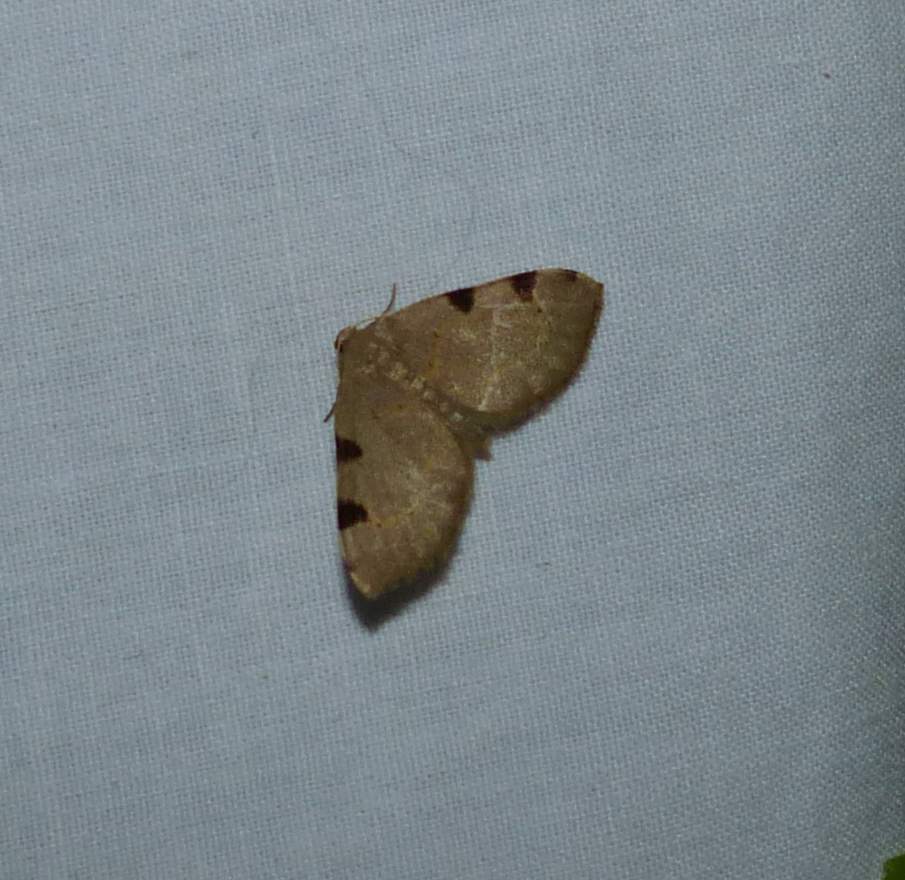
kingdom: Animalia
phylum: Arthropoda
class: Insecta
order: Lepidoptera
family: Geometridae
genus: Heterophleps
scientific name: Heterophleps triguttaria
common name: Three-spotted fillip
